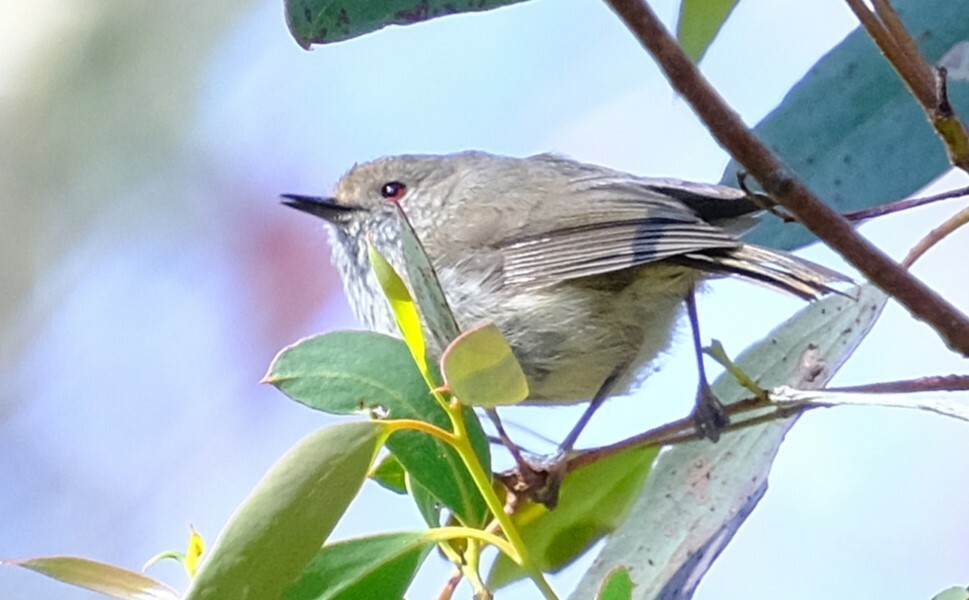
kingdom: Animalia
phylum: Chordata
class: Aves
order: Passeriformes
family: Acanthizidae
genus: Acanthiza
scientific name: Acanthiza pusilla
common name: Brown thornbill
